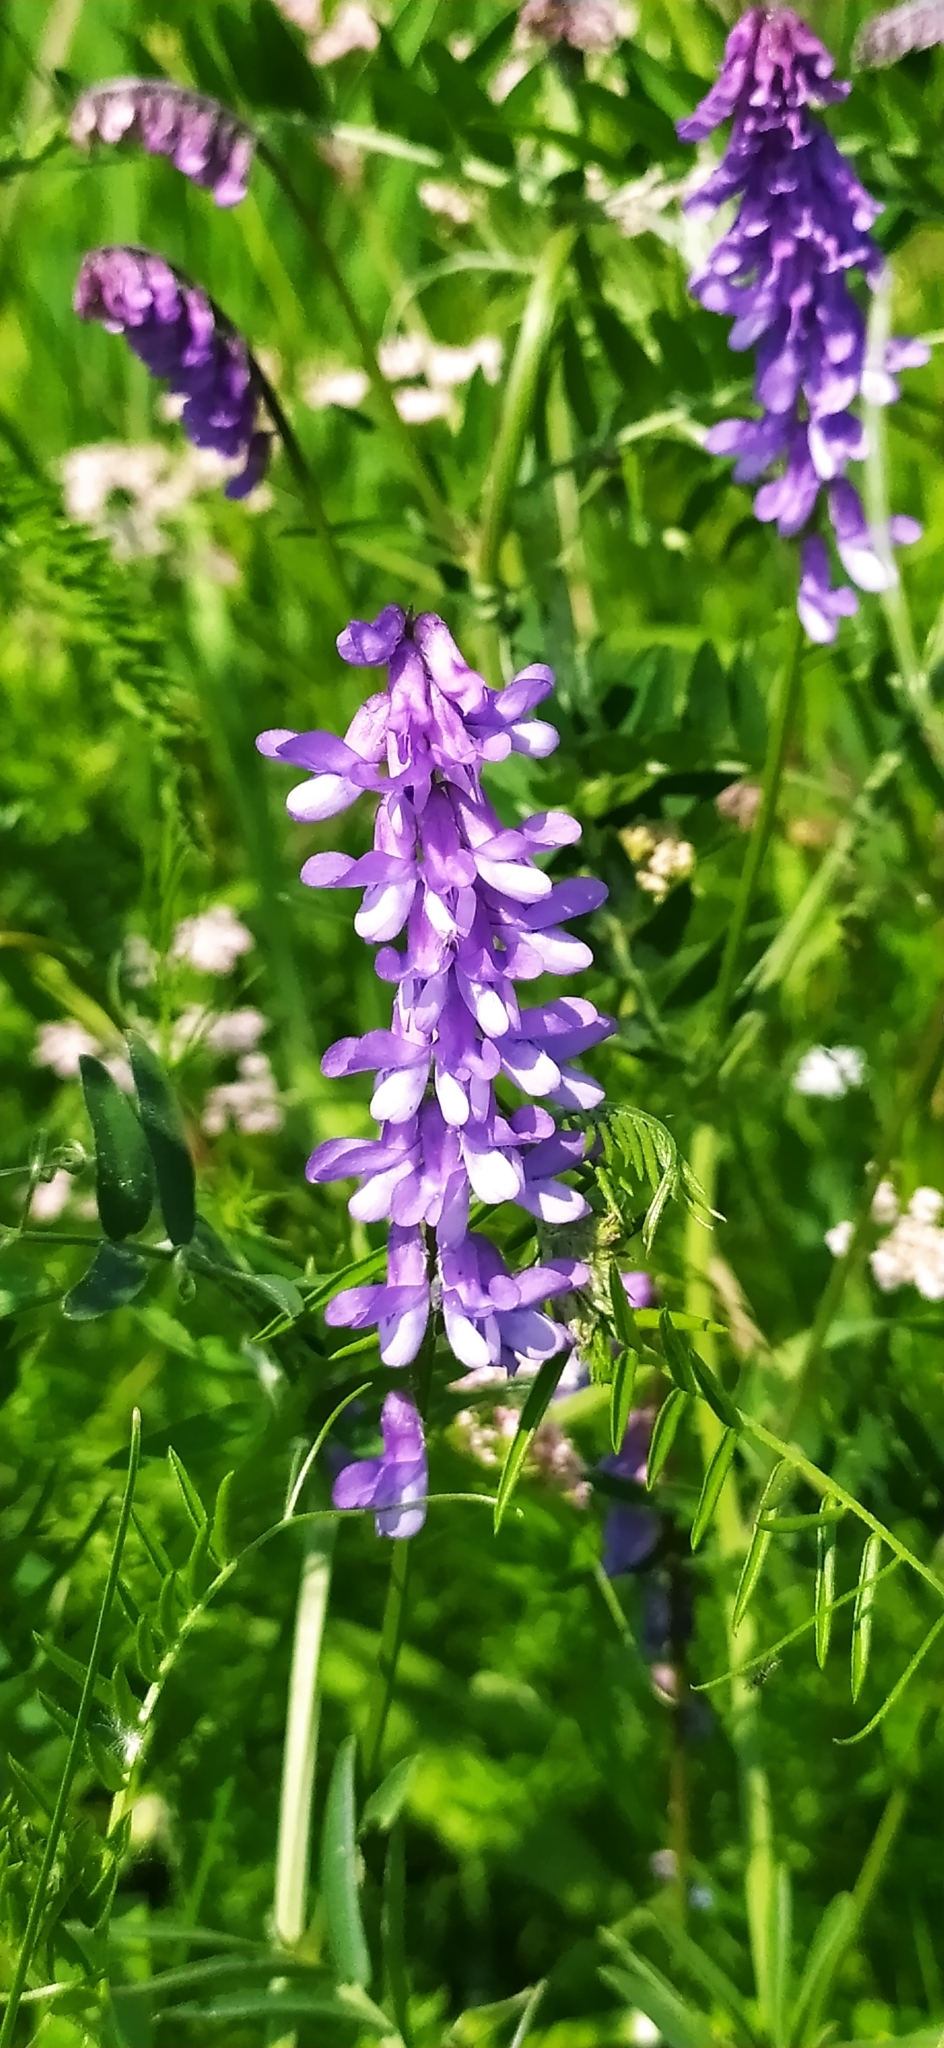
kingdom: Plantae
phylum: Tracheophyta
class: Magnoliopsida
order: Fabales
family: Fabaceae
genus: Vicia
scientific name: Vicia cracca
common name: Bird vetch
